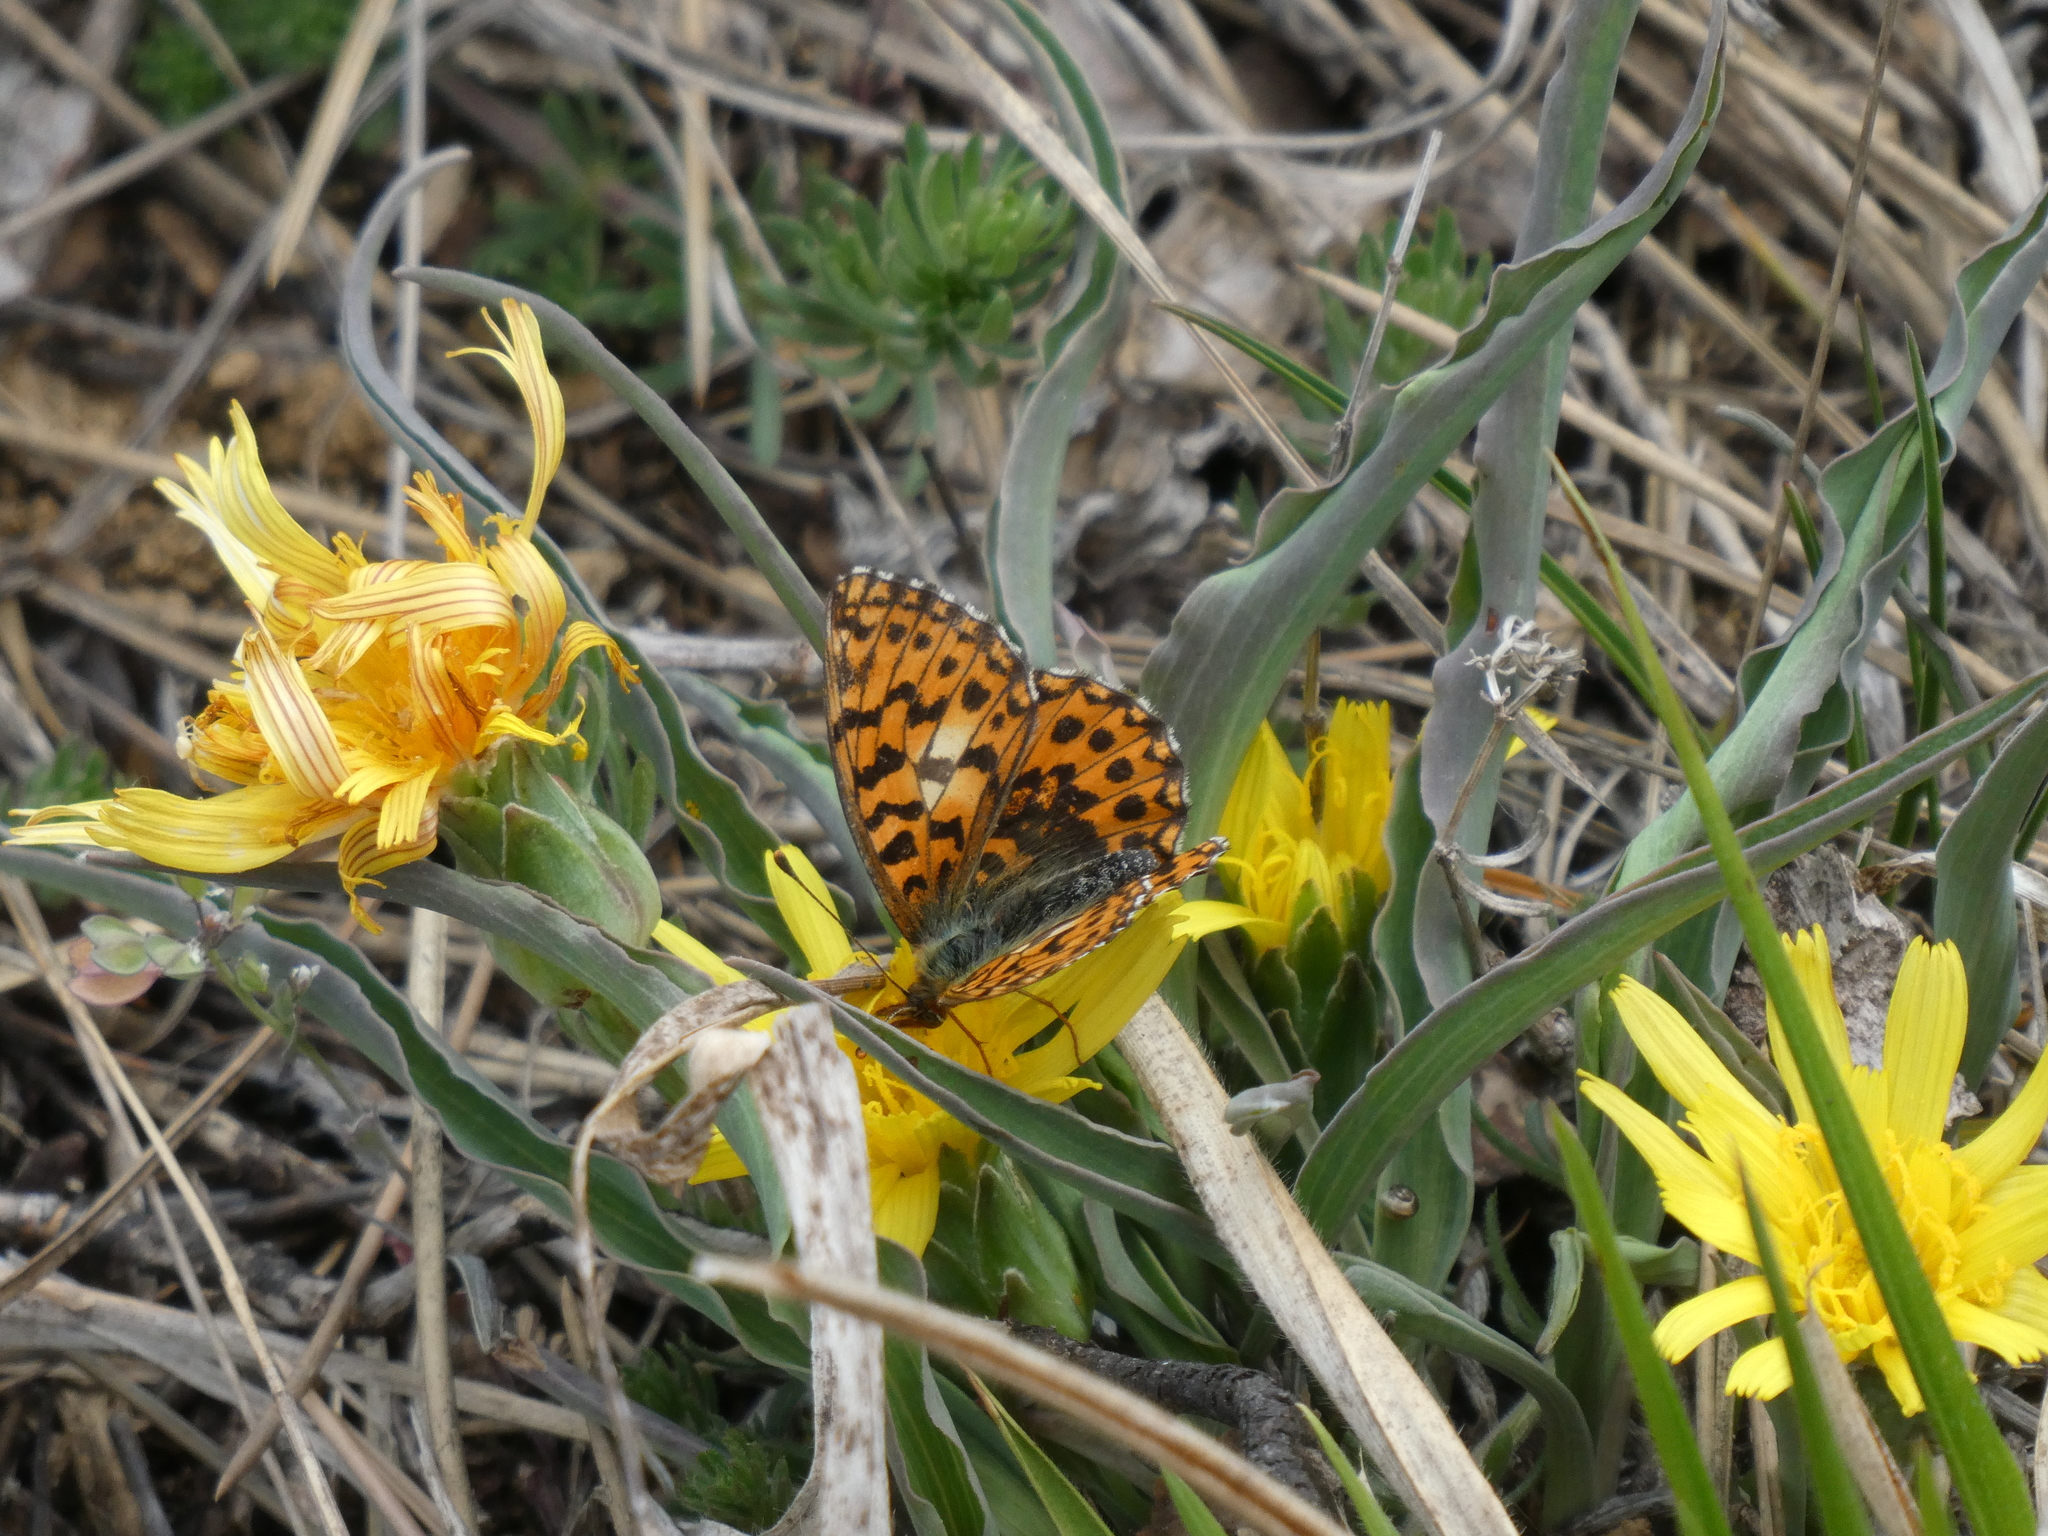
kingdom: Animalia
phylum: Arthropoda
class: Insecta
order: Lepidoptera
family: Nymphalidae
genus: Boloria
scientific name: Boloria dia
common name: Weaver's fritillary
